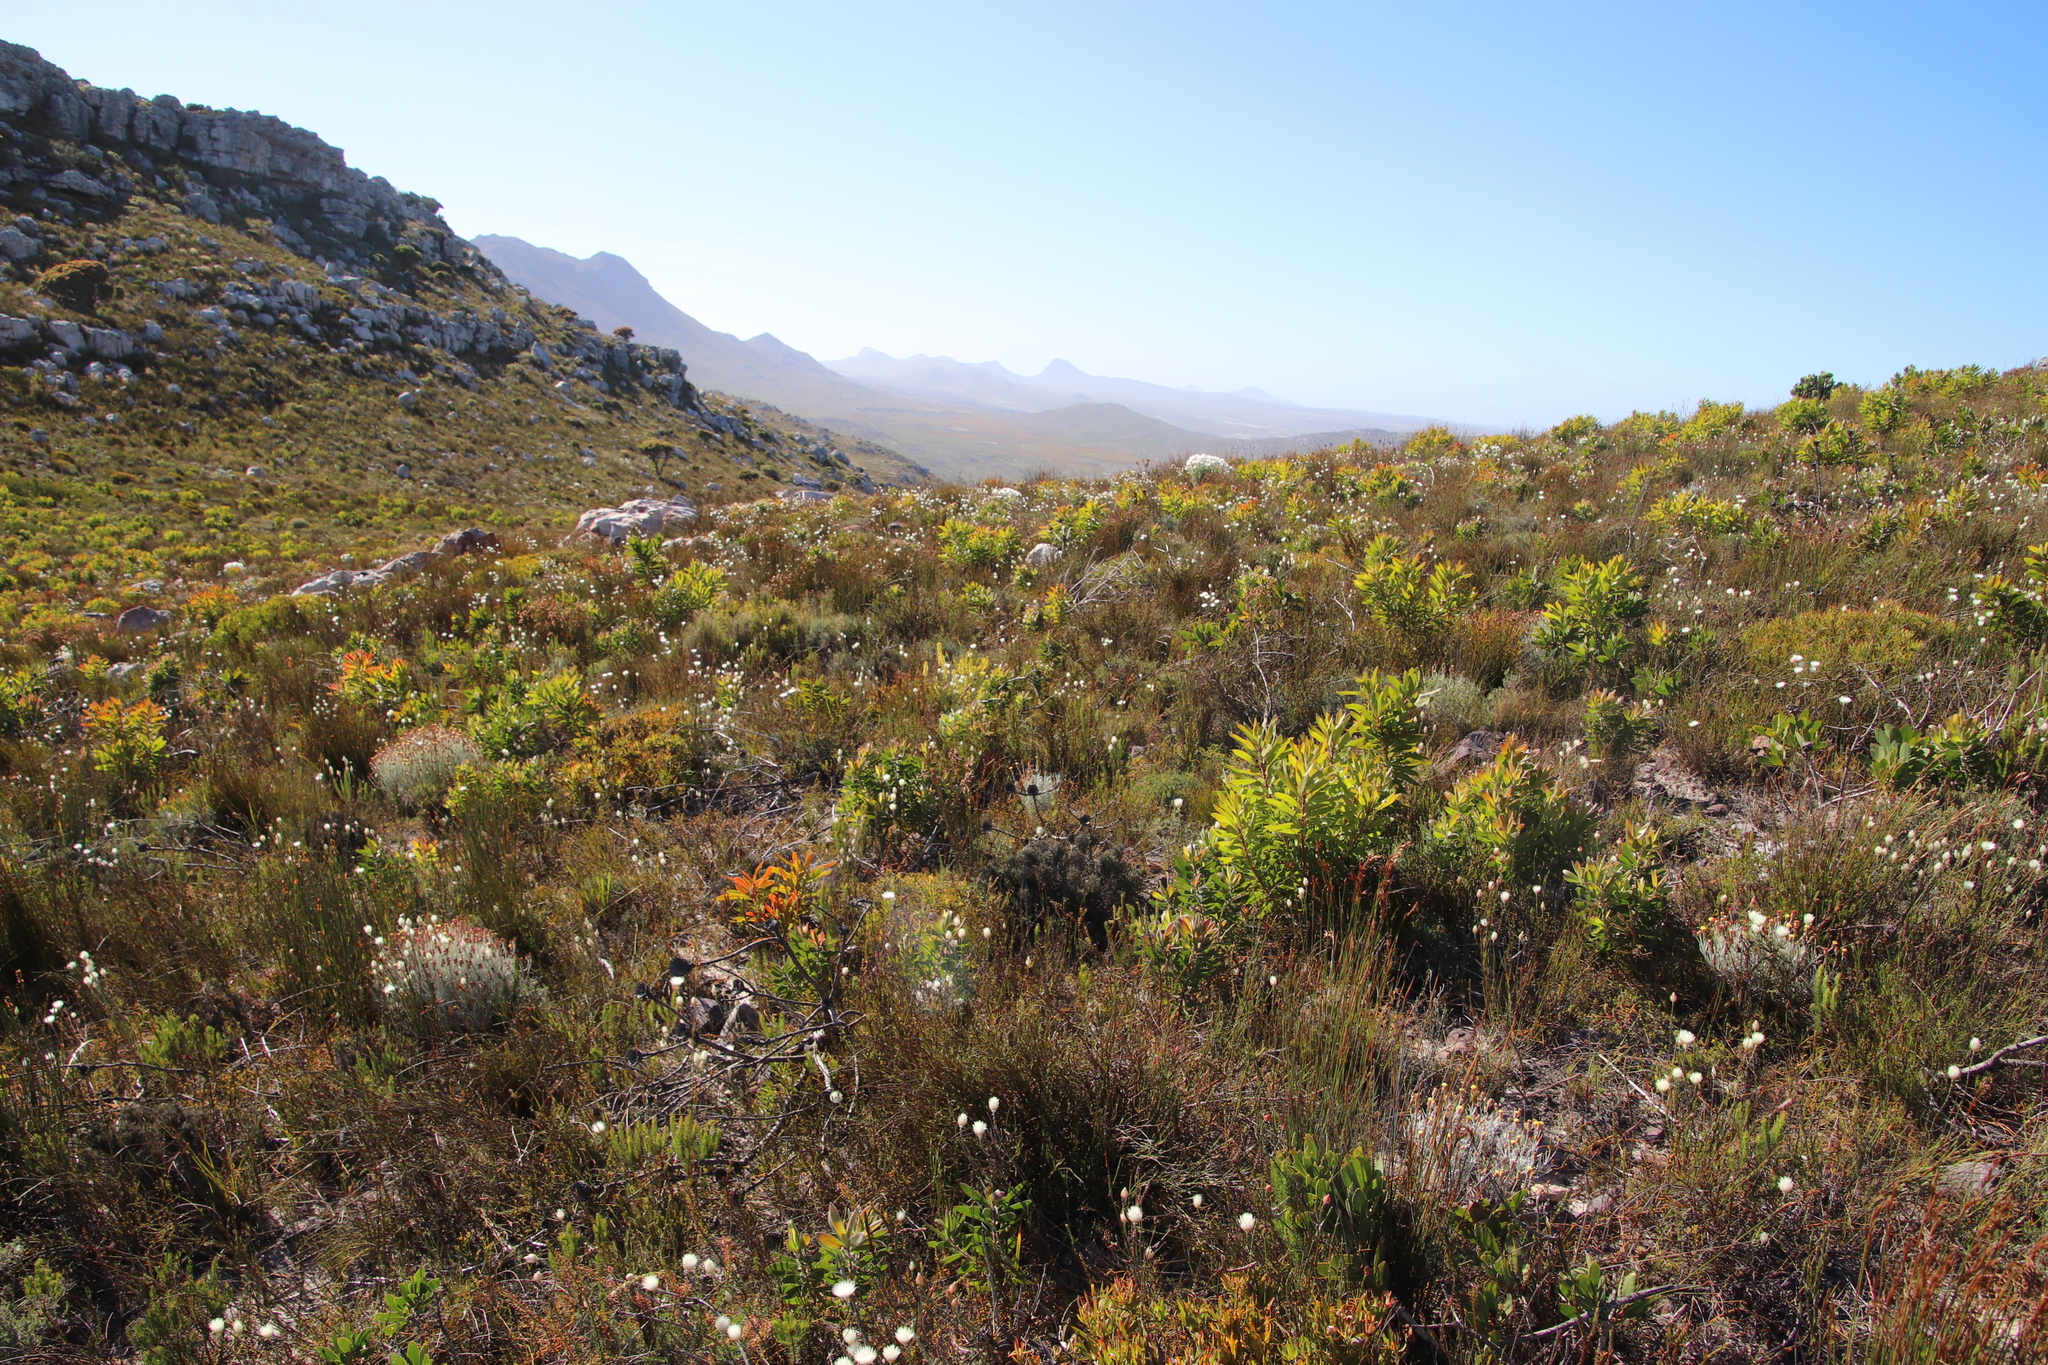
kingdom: Plantae
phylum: Tracheophyta
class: Magnoliopsida
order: Proteales
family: Proteaceae
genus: Protea
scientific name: Protea lepidocarpodendron
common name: Black-bearded protea
